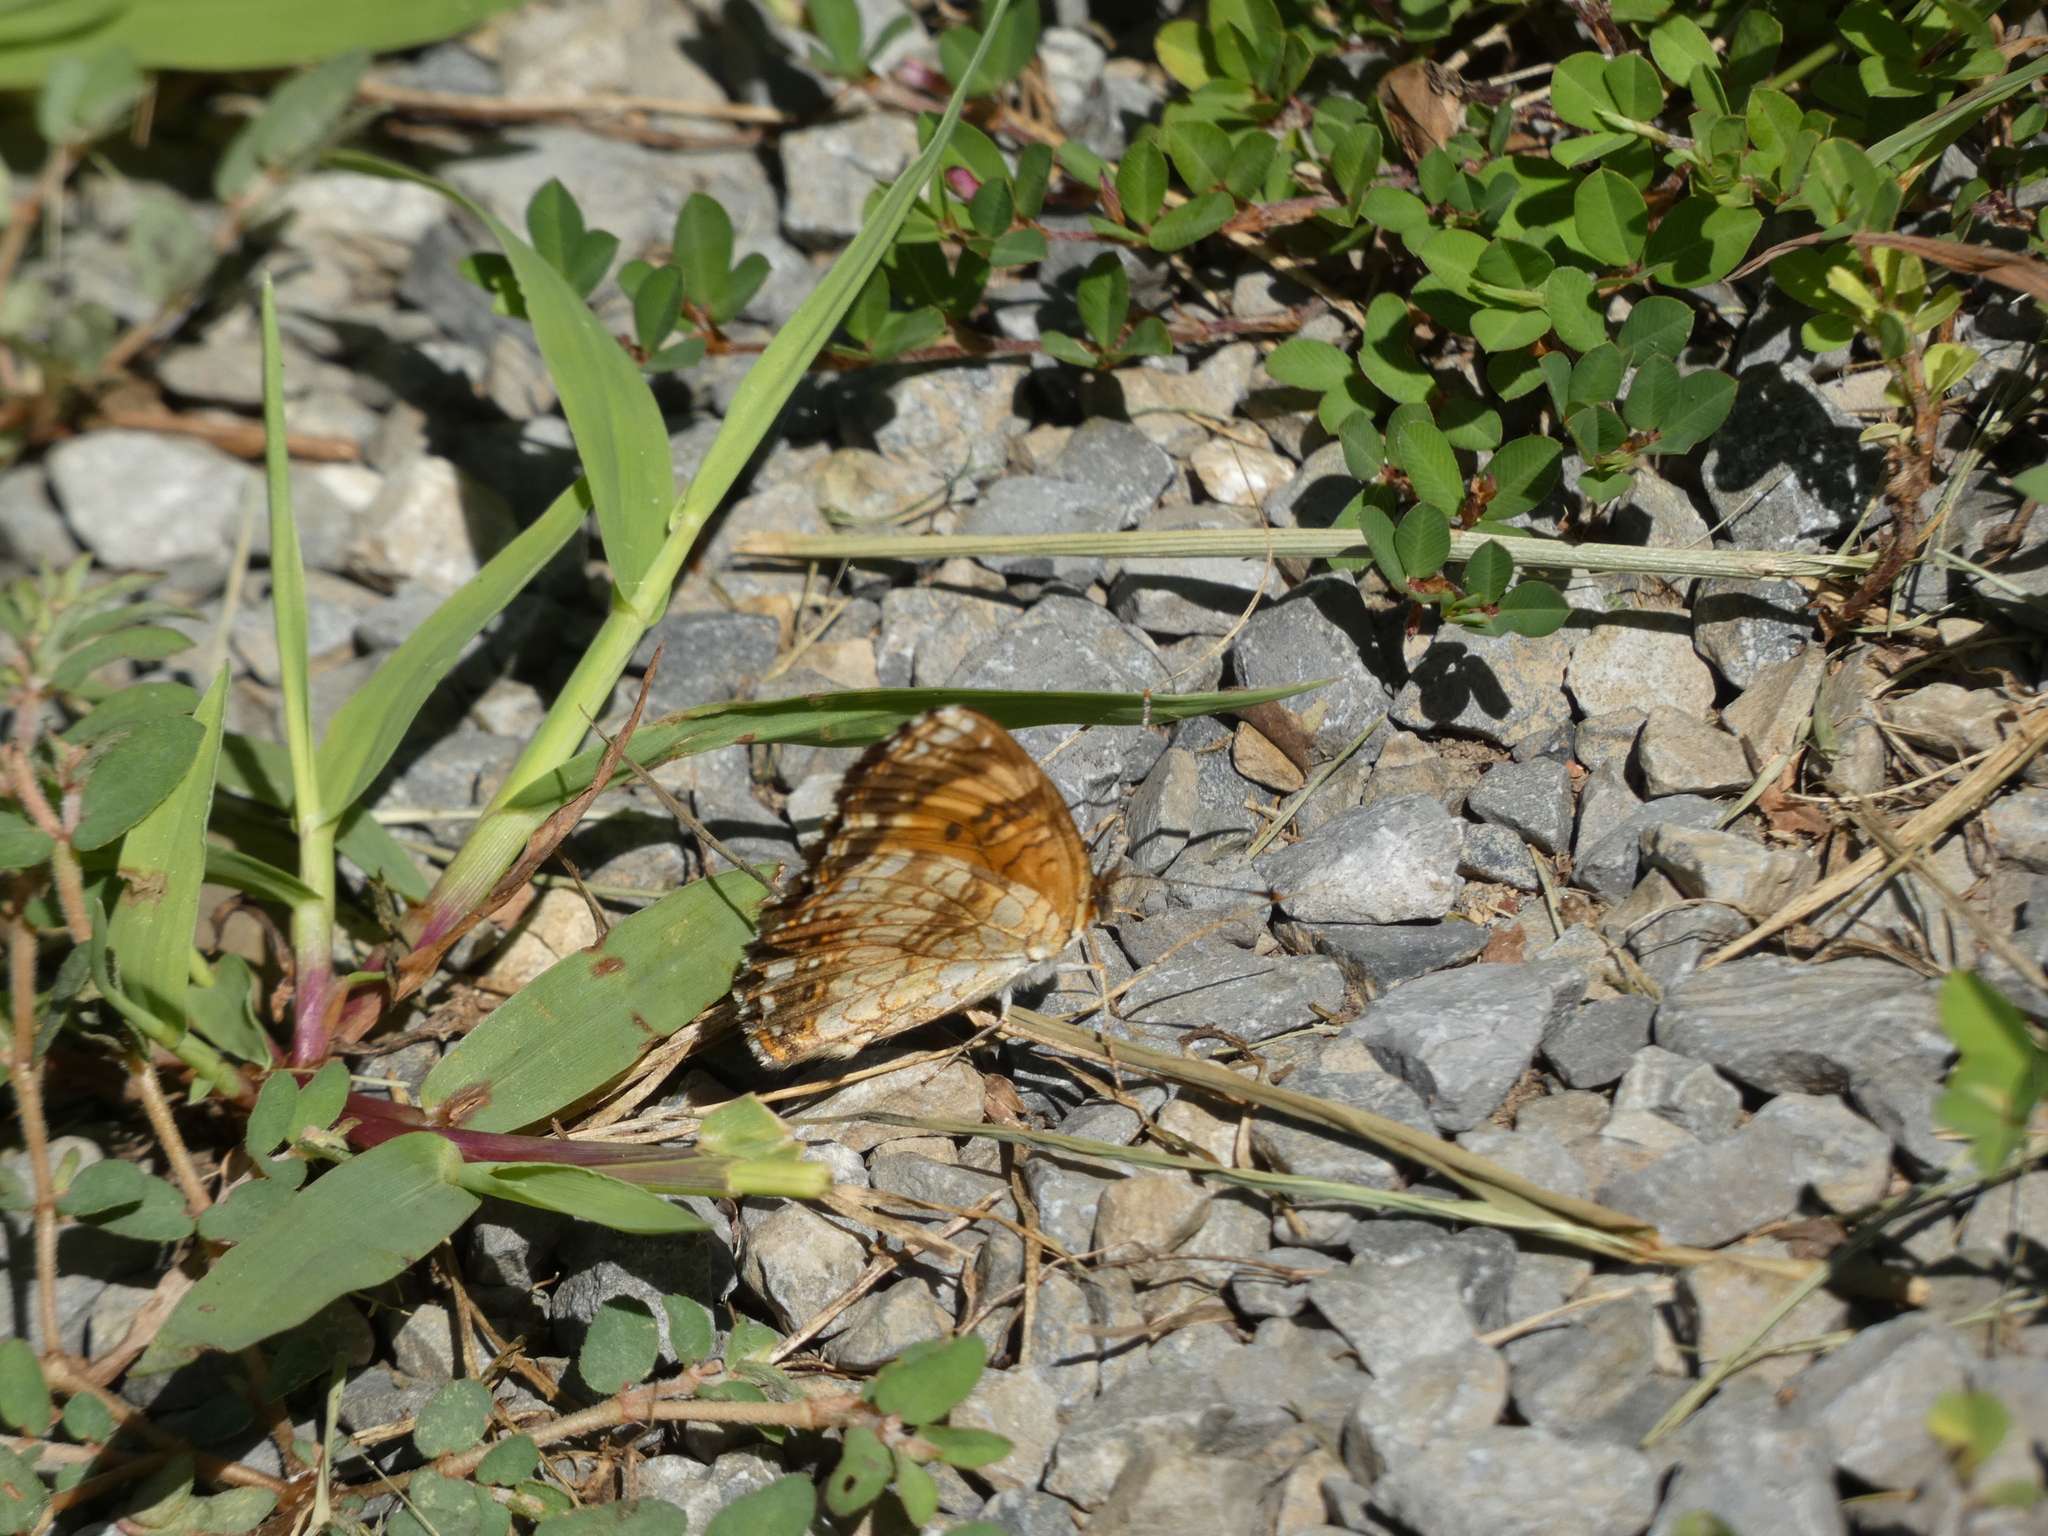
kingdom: Animalia
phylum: Arthropoda
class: Insecta
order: Lepidoptera
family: Nymphalidae
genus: Chlosyne
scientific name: Chlosyne nycteis
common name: Silvery checkerspot
